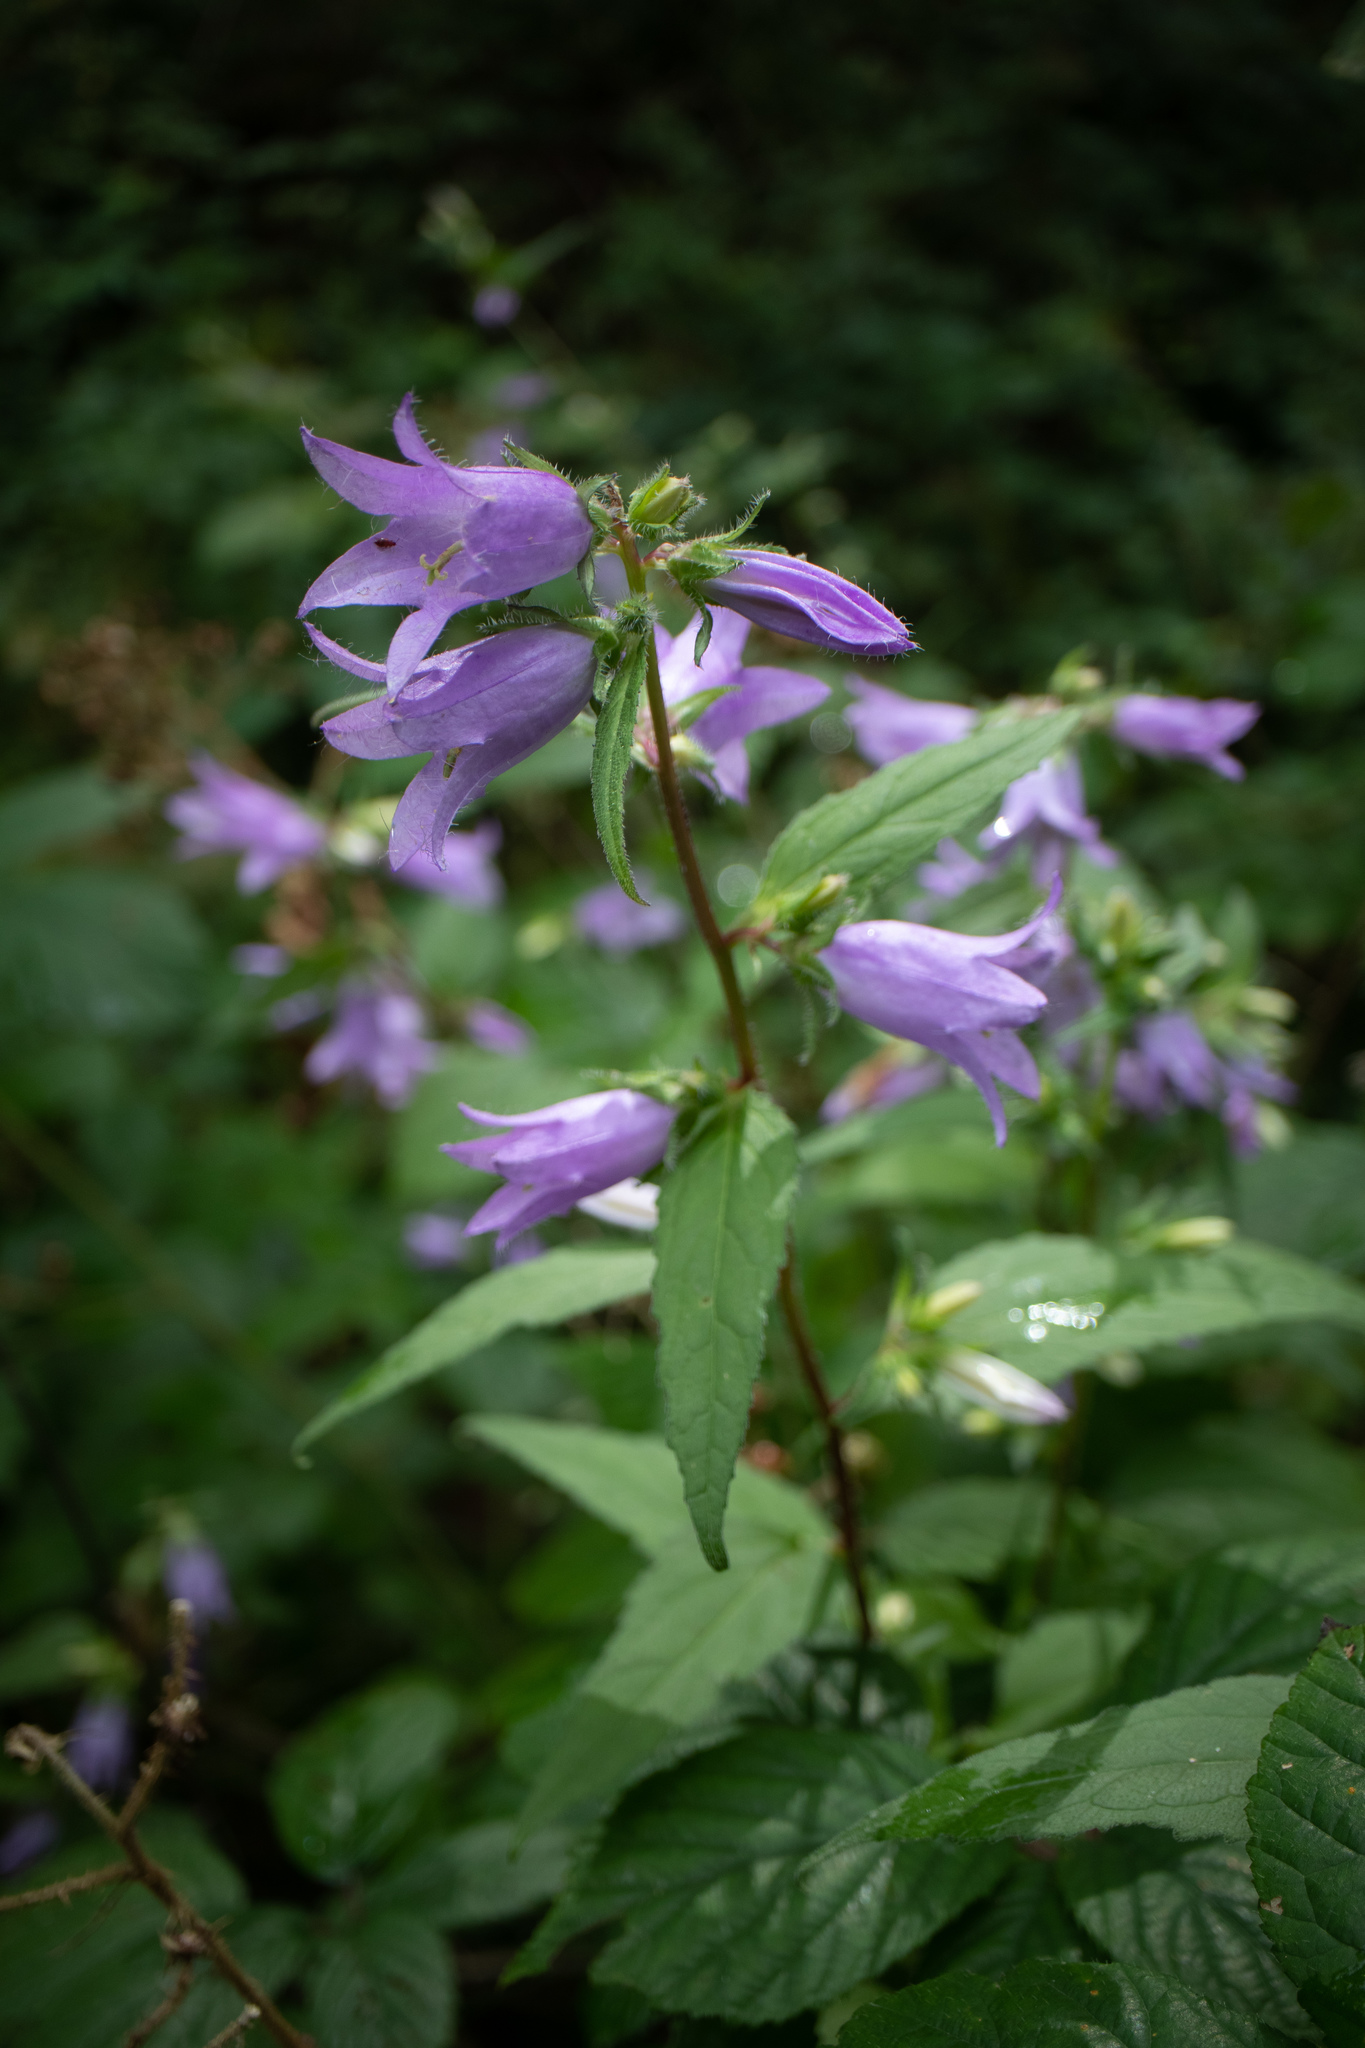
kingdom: Plantae
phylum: Tracheophyta
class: Magnoliopsida
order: Asterales
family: Campanulaceae
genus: Campanula
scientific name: Campanula trachelium
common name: Nettle-leaved bellflower
